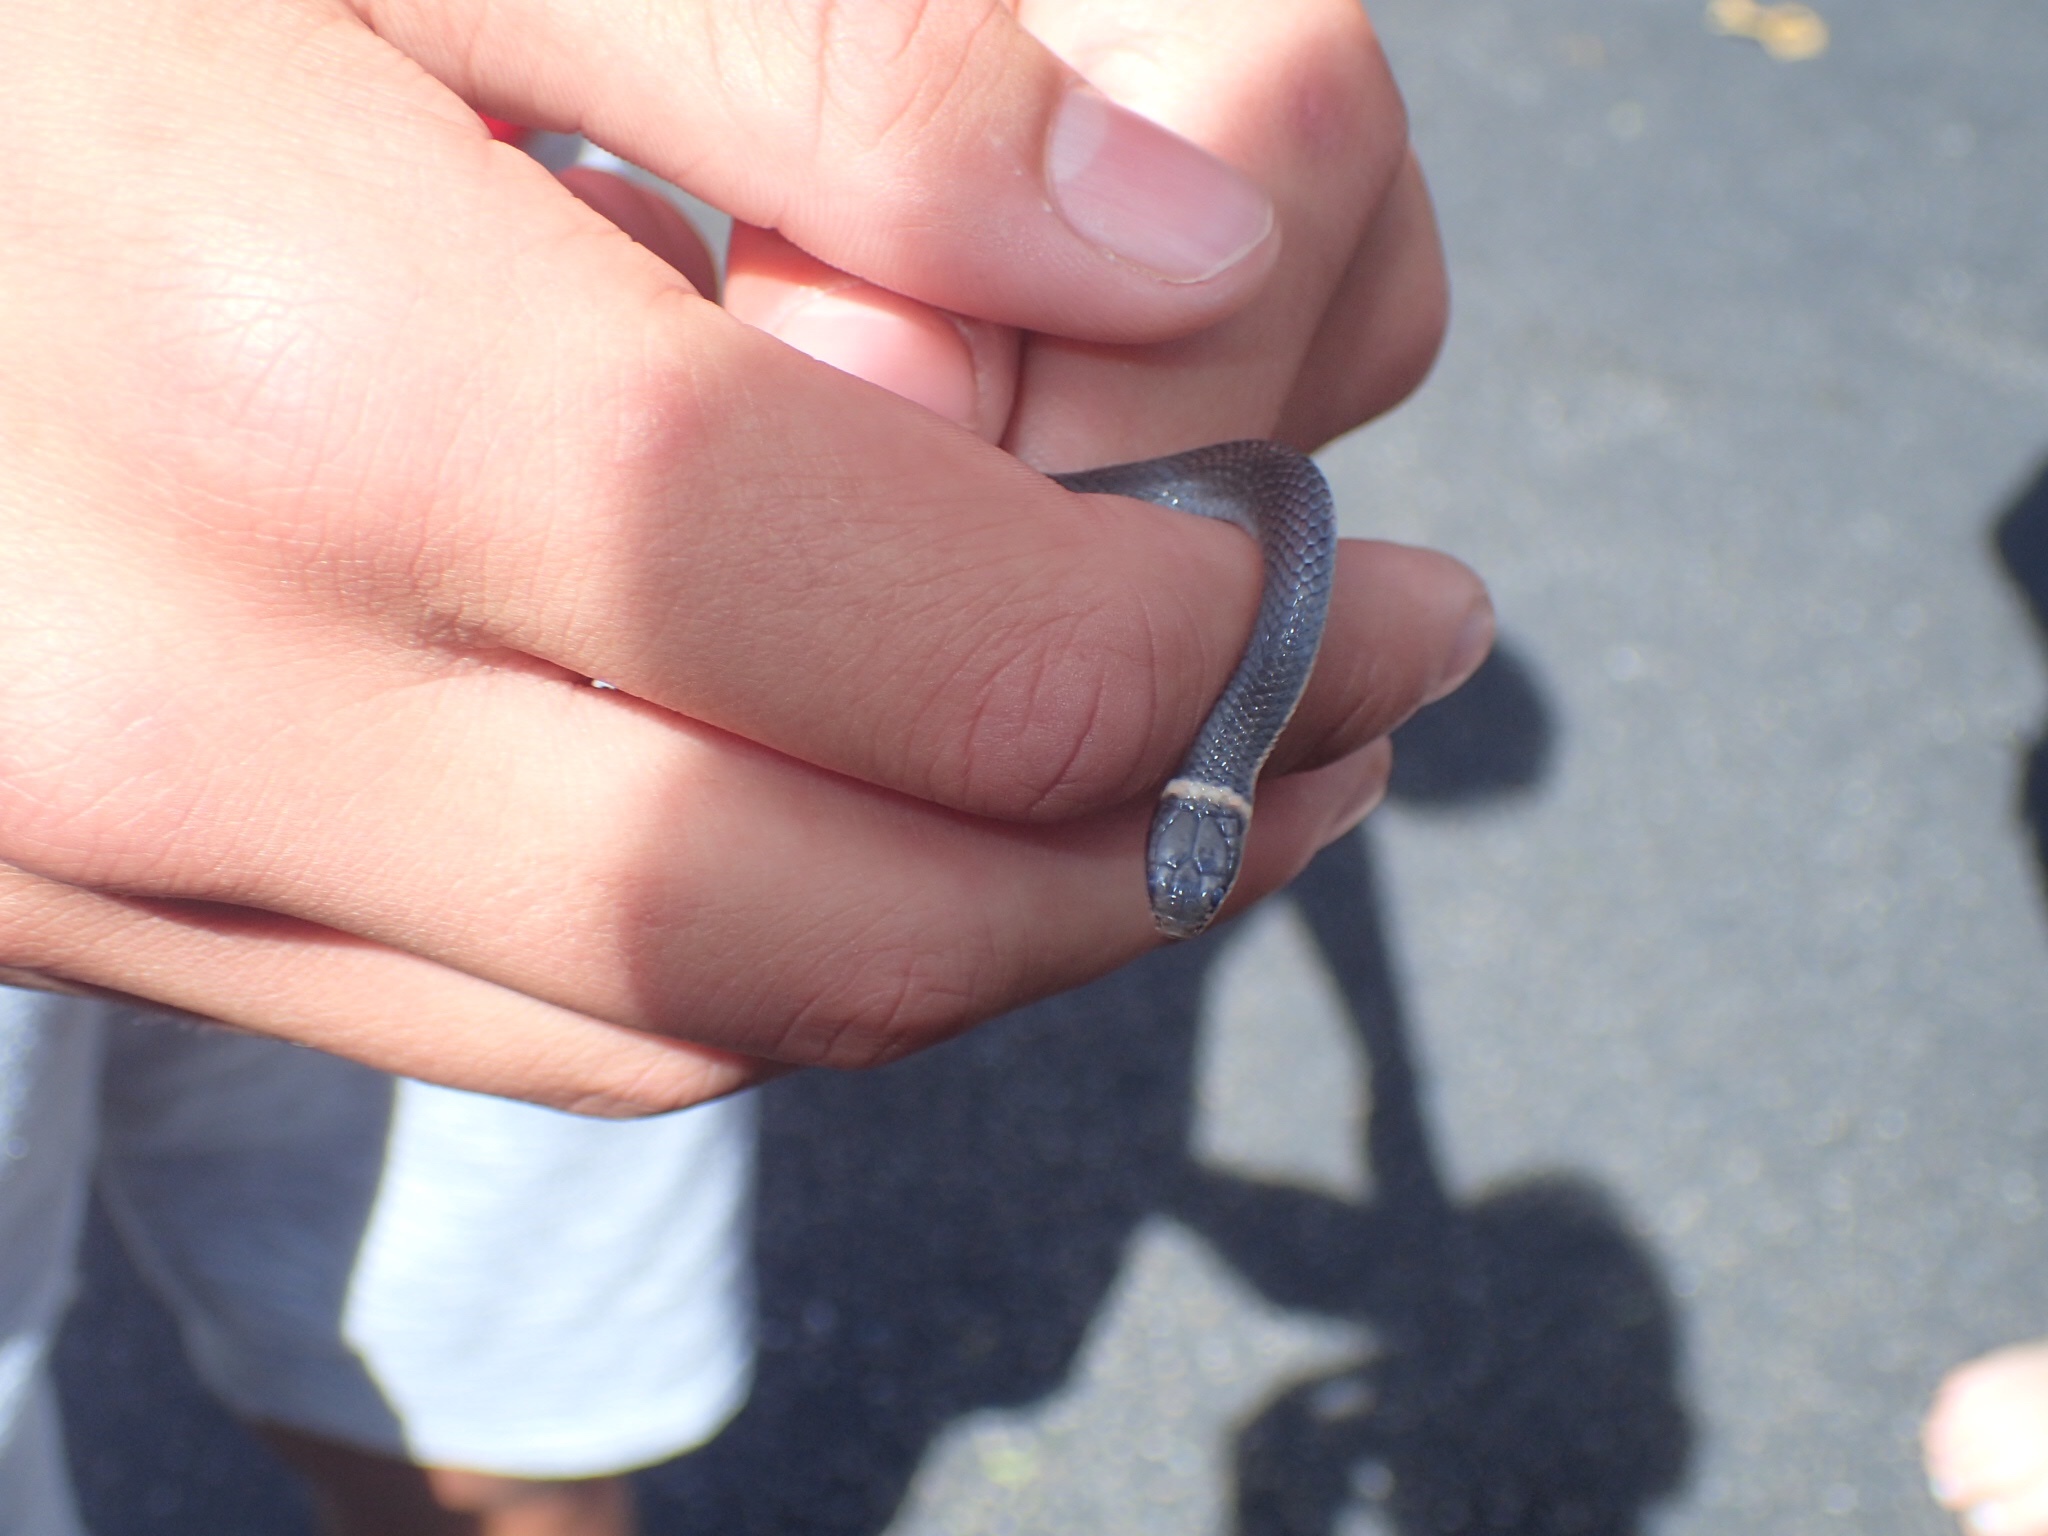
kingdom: Animalia
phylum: Chordata
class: Squamata
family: Colubridae
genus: Diadophis
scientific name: Diadophis punctatus
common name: Ringneck snake
